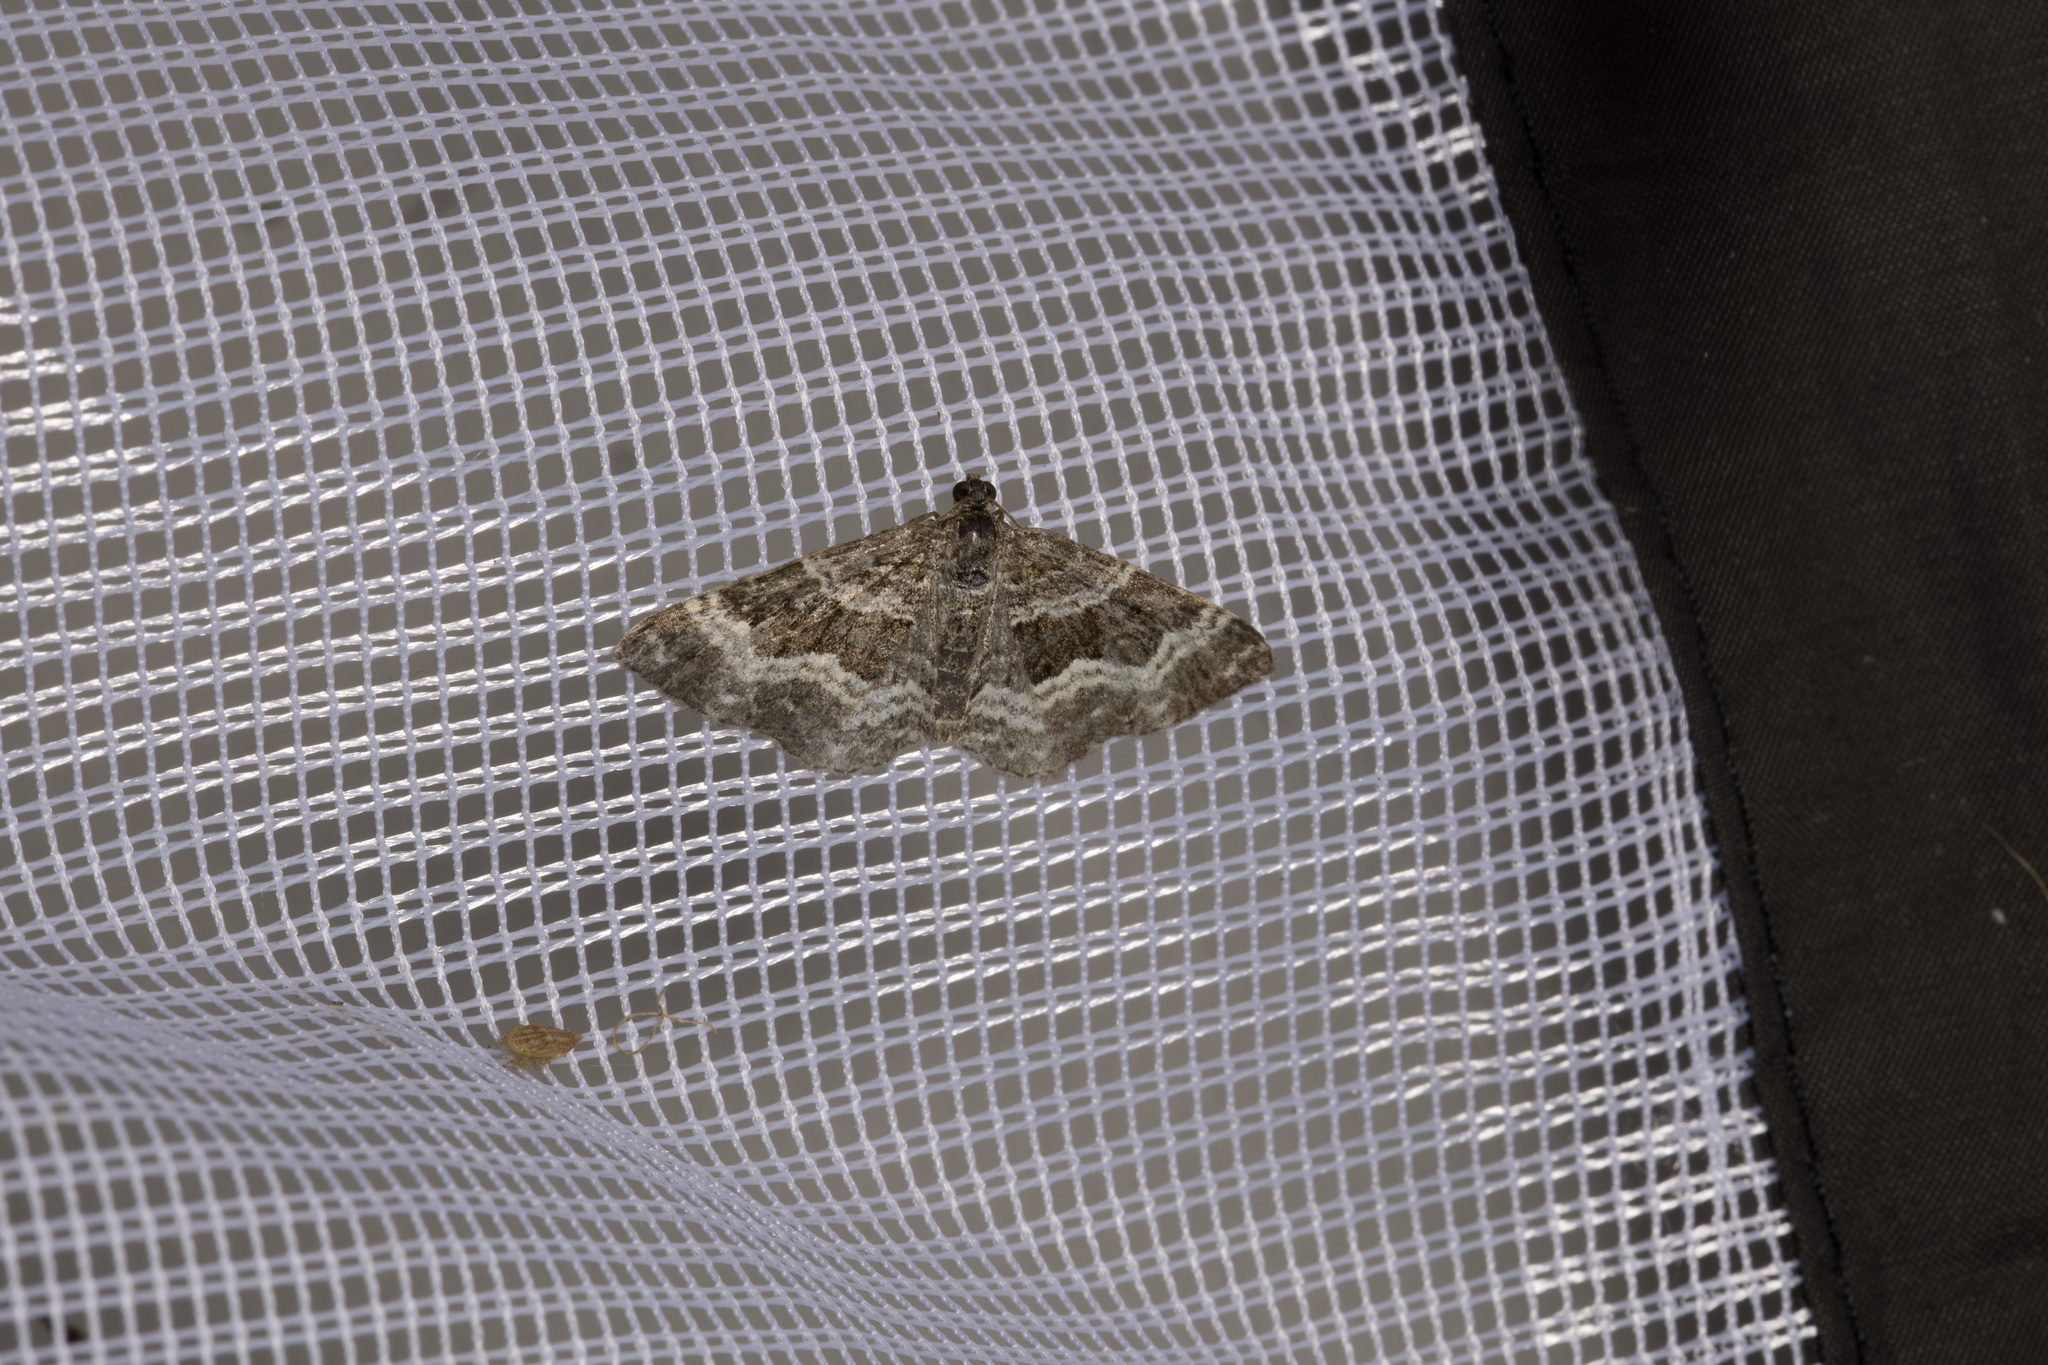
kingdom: Animalia
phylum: Arthropoda
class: Insecta
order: Lepidoptera
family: Geometridae
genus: Epirrhoe
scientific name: Epirrhoe alternata
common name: Common carpet
